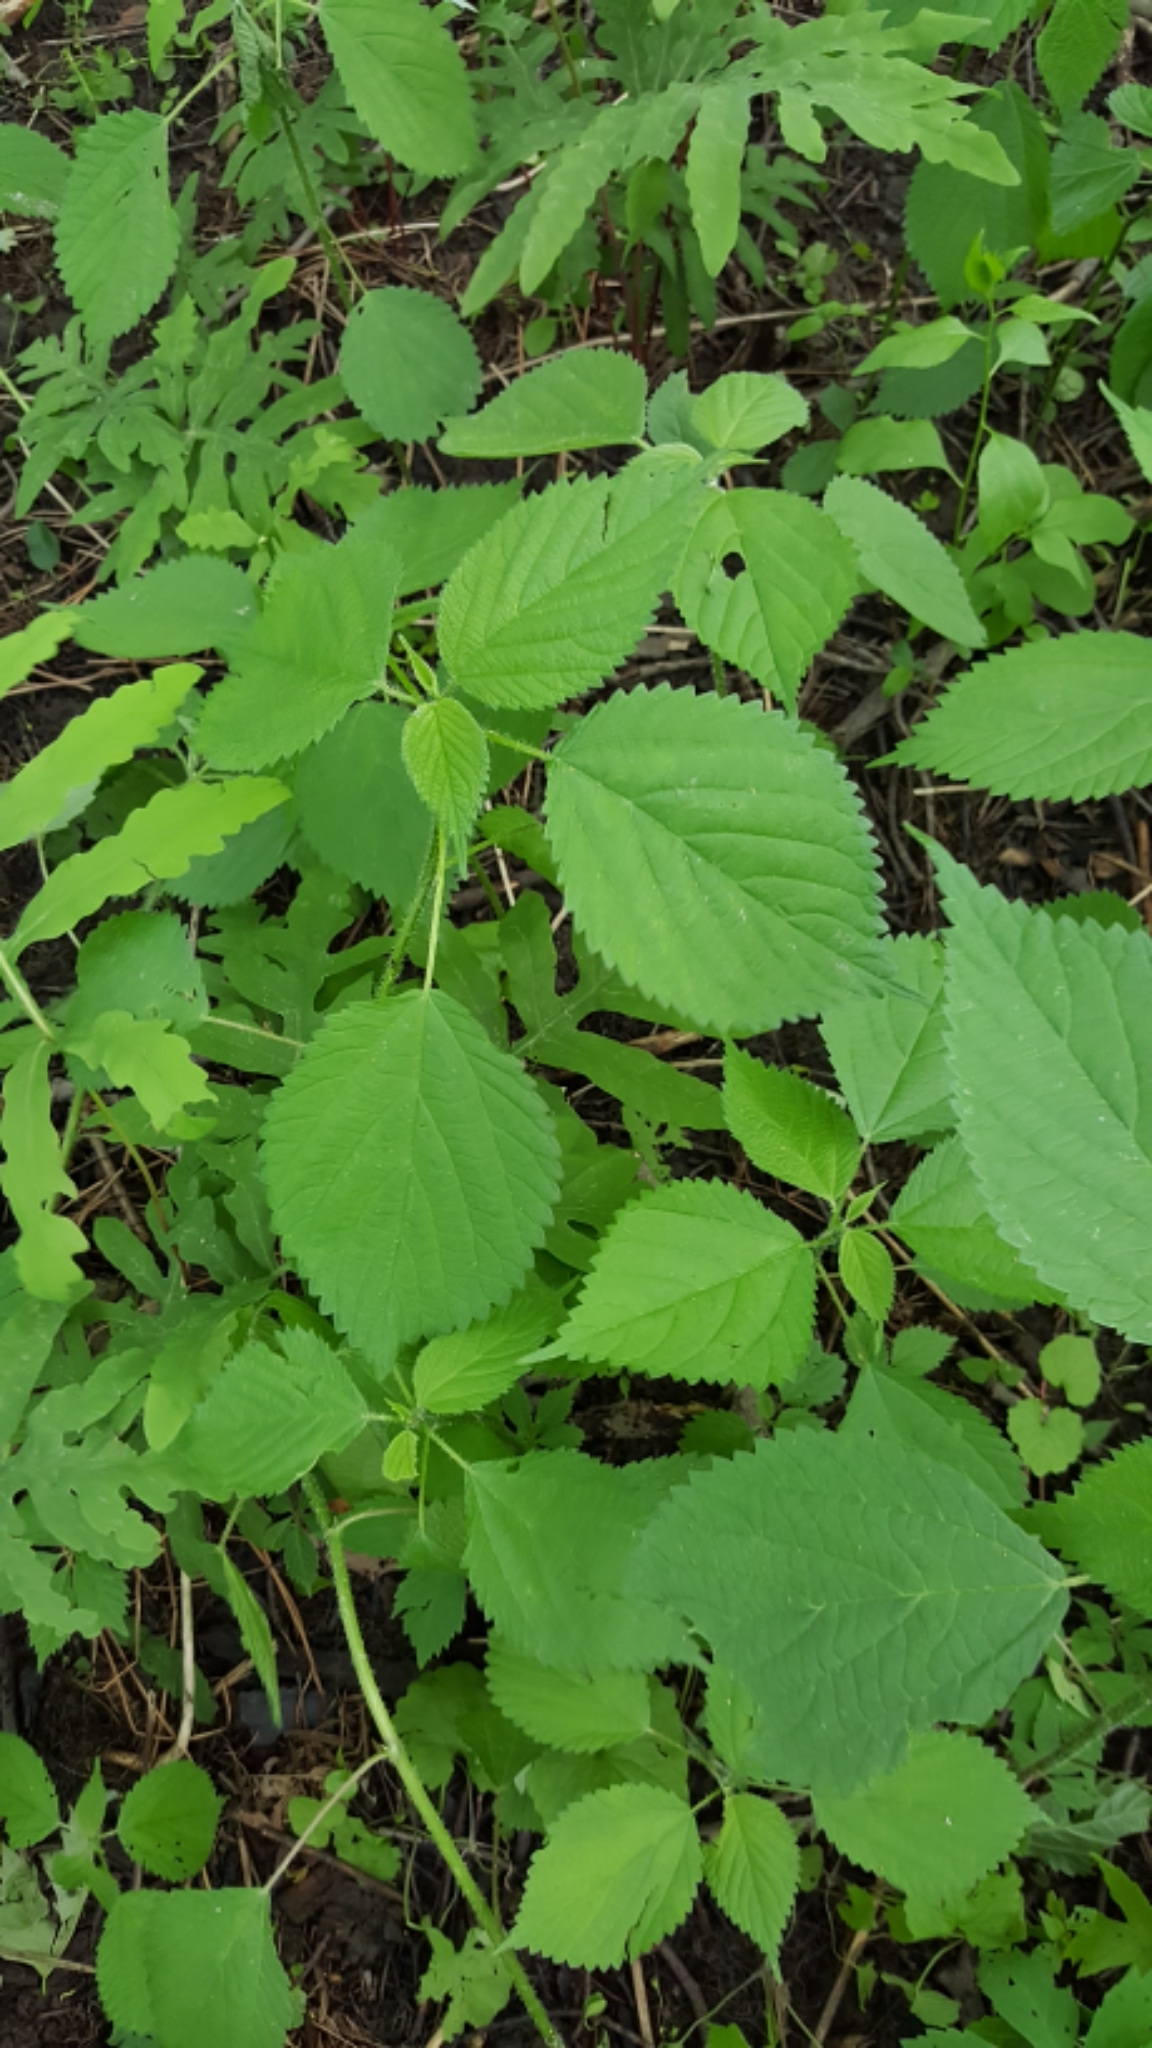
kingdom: Plantae
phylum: Tracheophyta
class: Magnoliopsida
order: Rosales
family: Urticaceae
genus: Laportea
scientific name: Laportea canadensis
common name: Canada nettle
